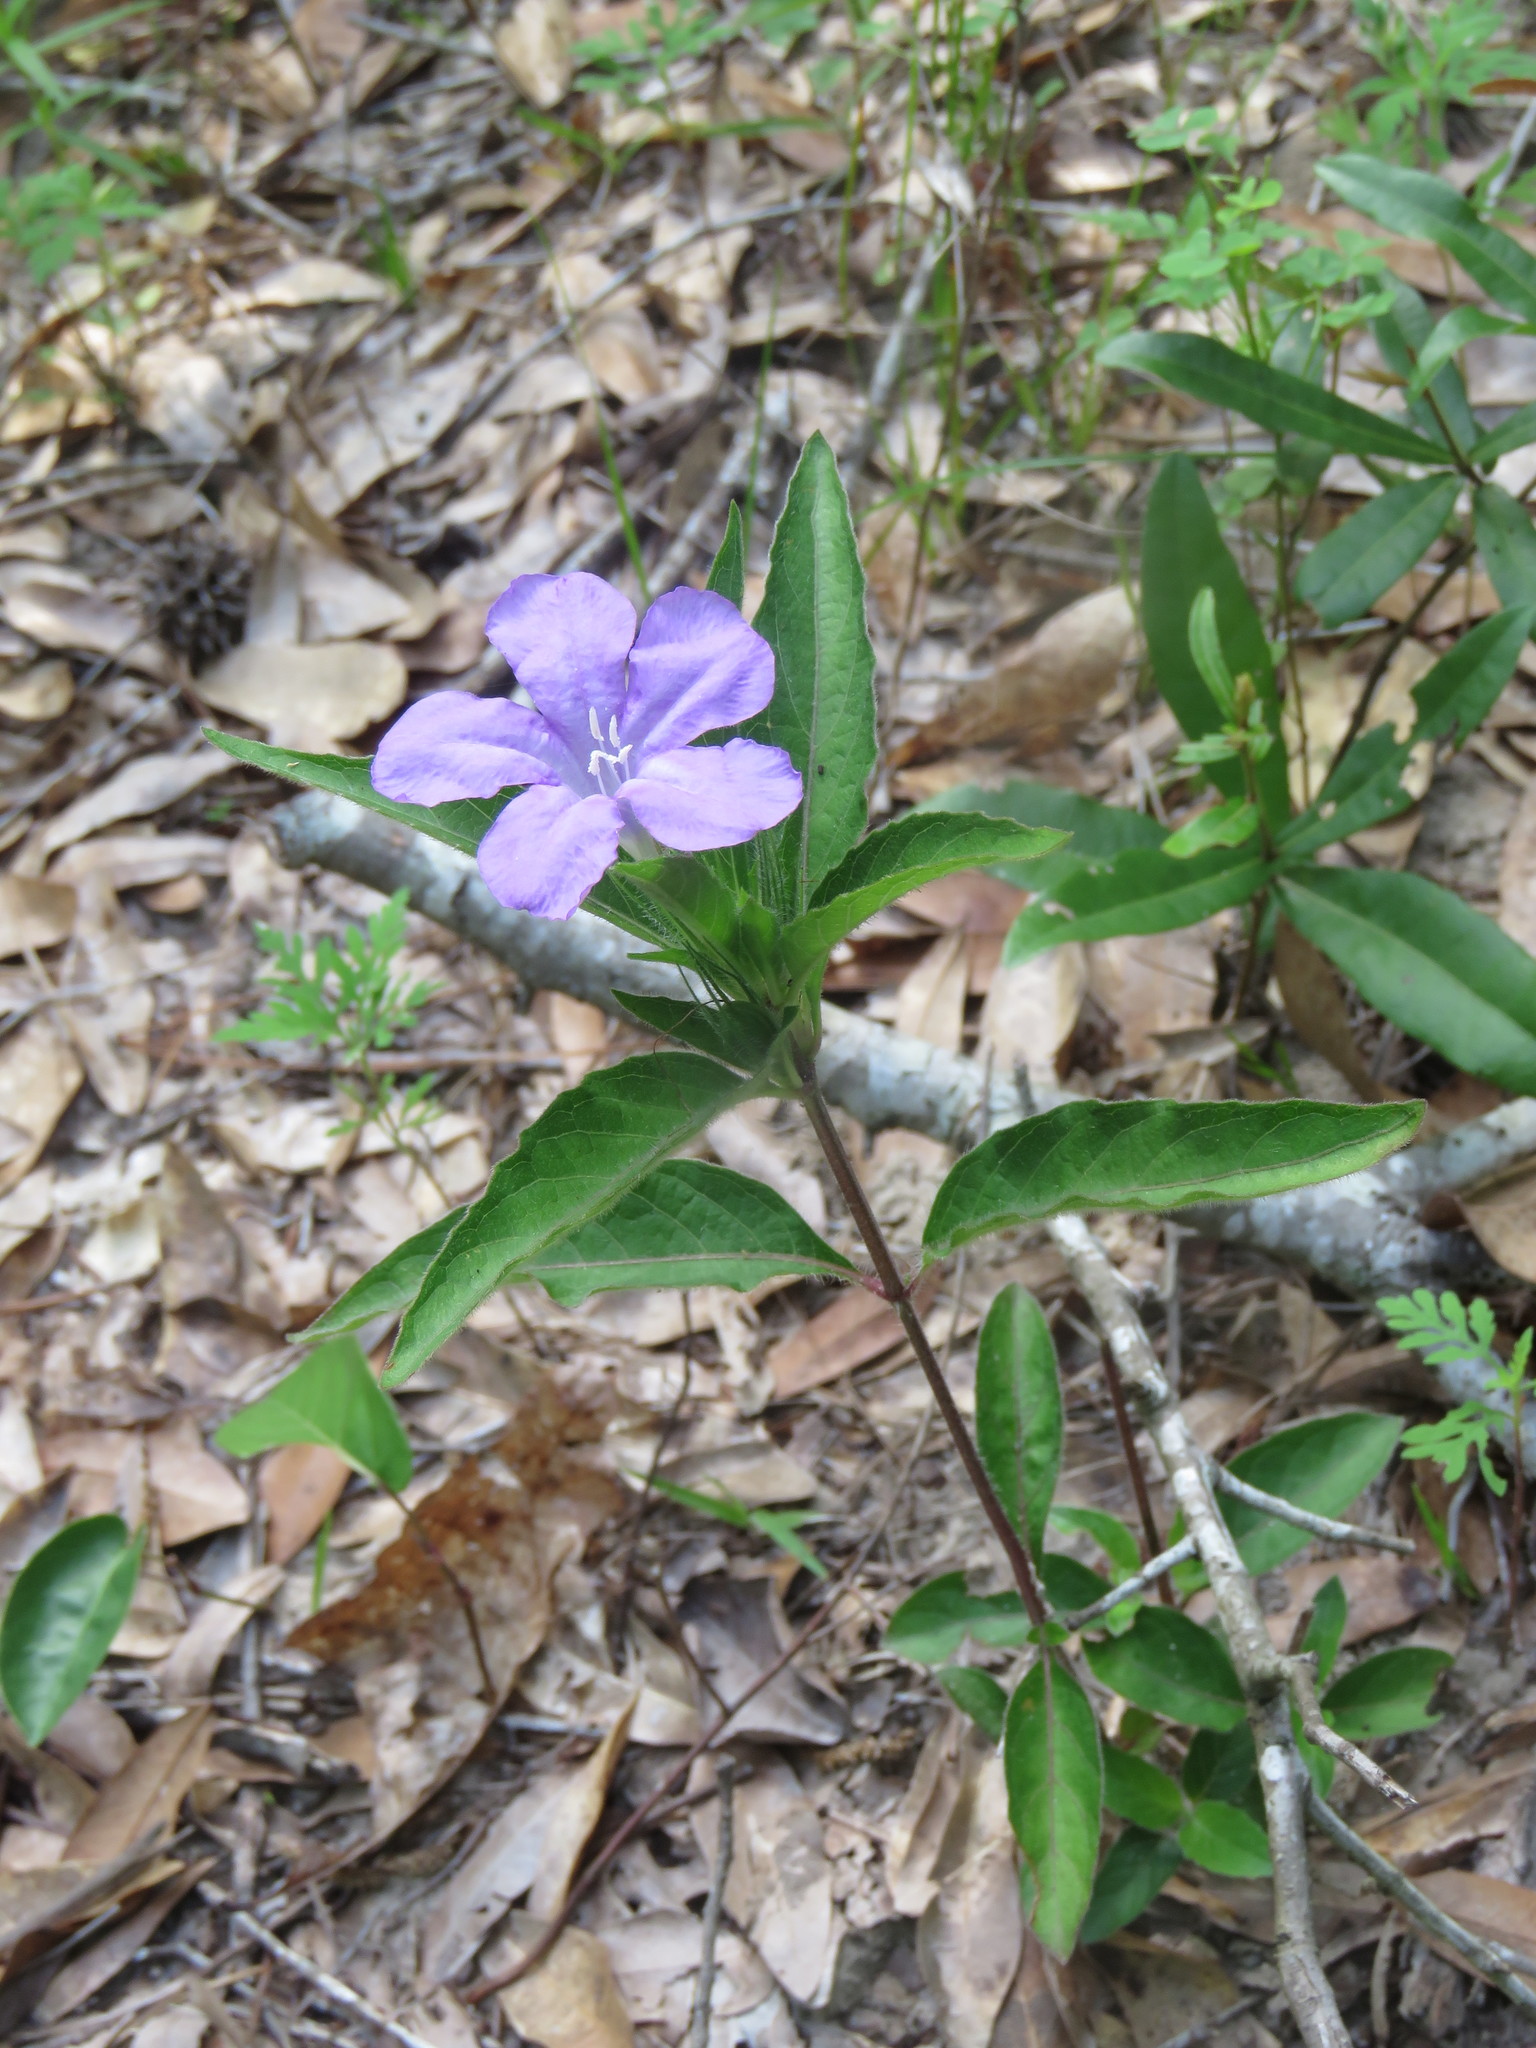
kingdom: Plantae
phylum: Tracheophyta
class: Magnoliopsida
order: Lamiales
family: Acanthaceae
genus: Ruellia
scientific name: Ruellia caroliniensis
